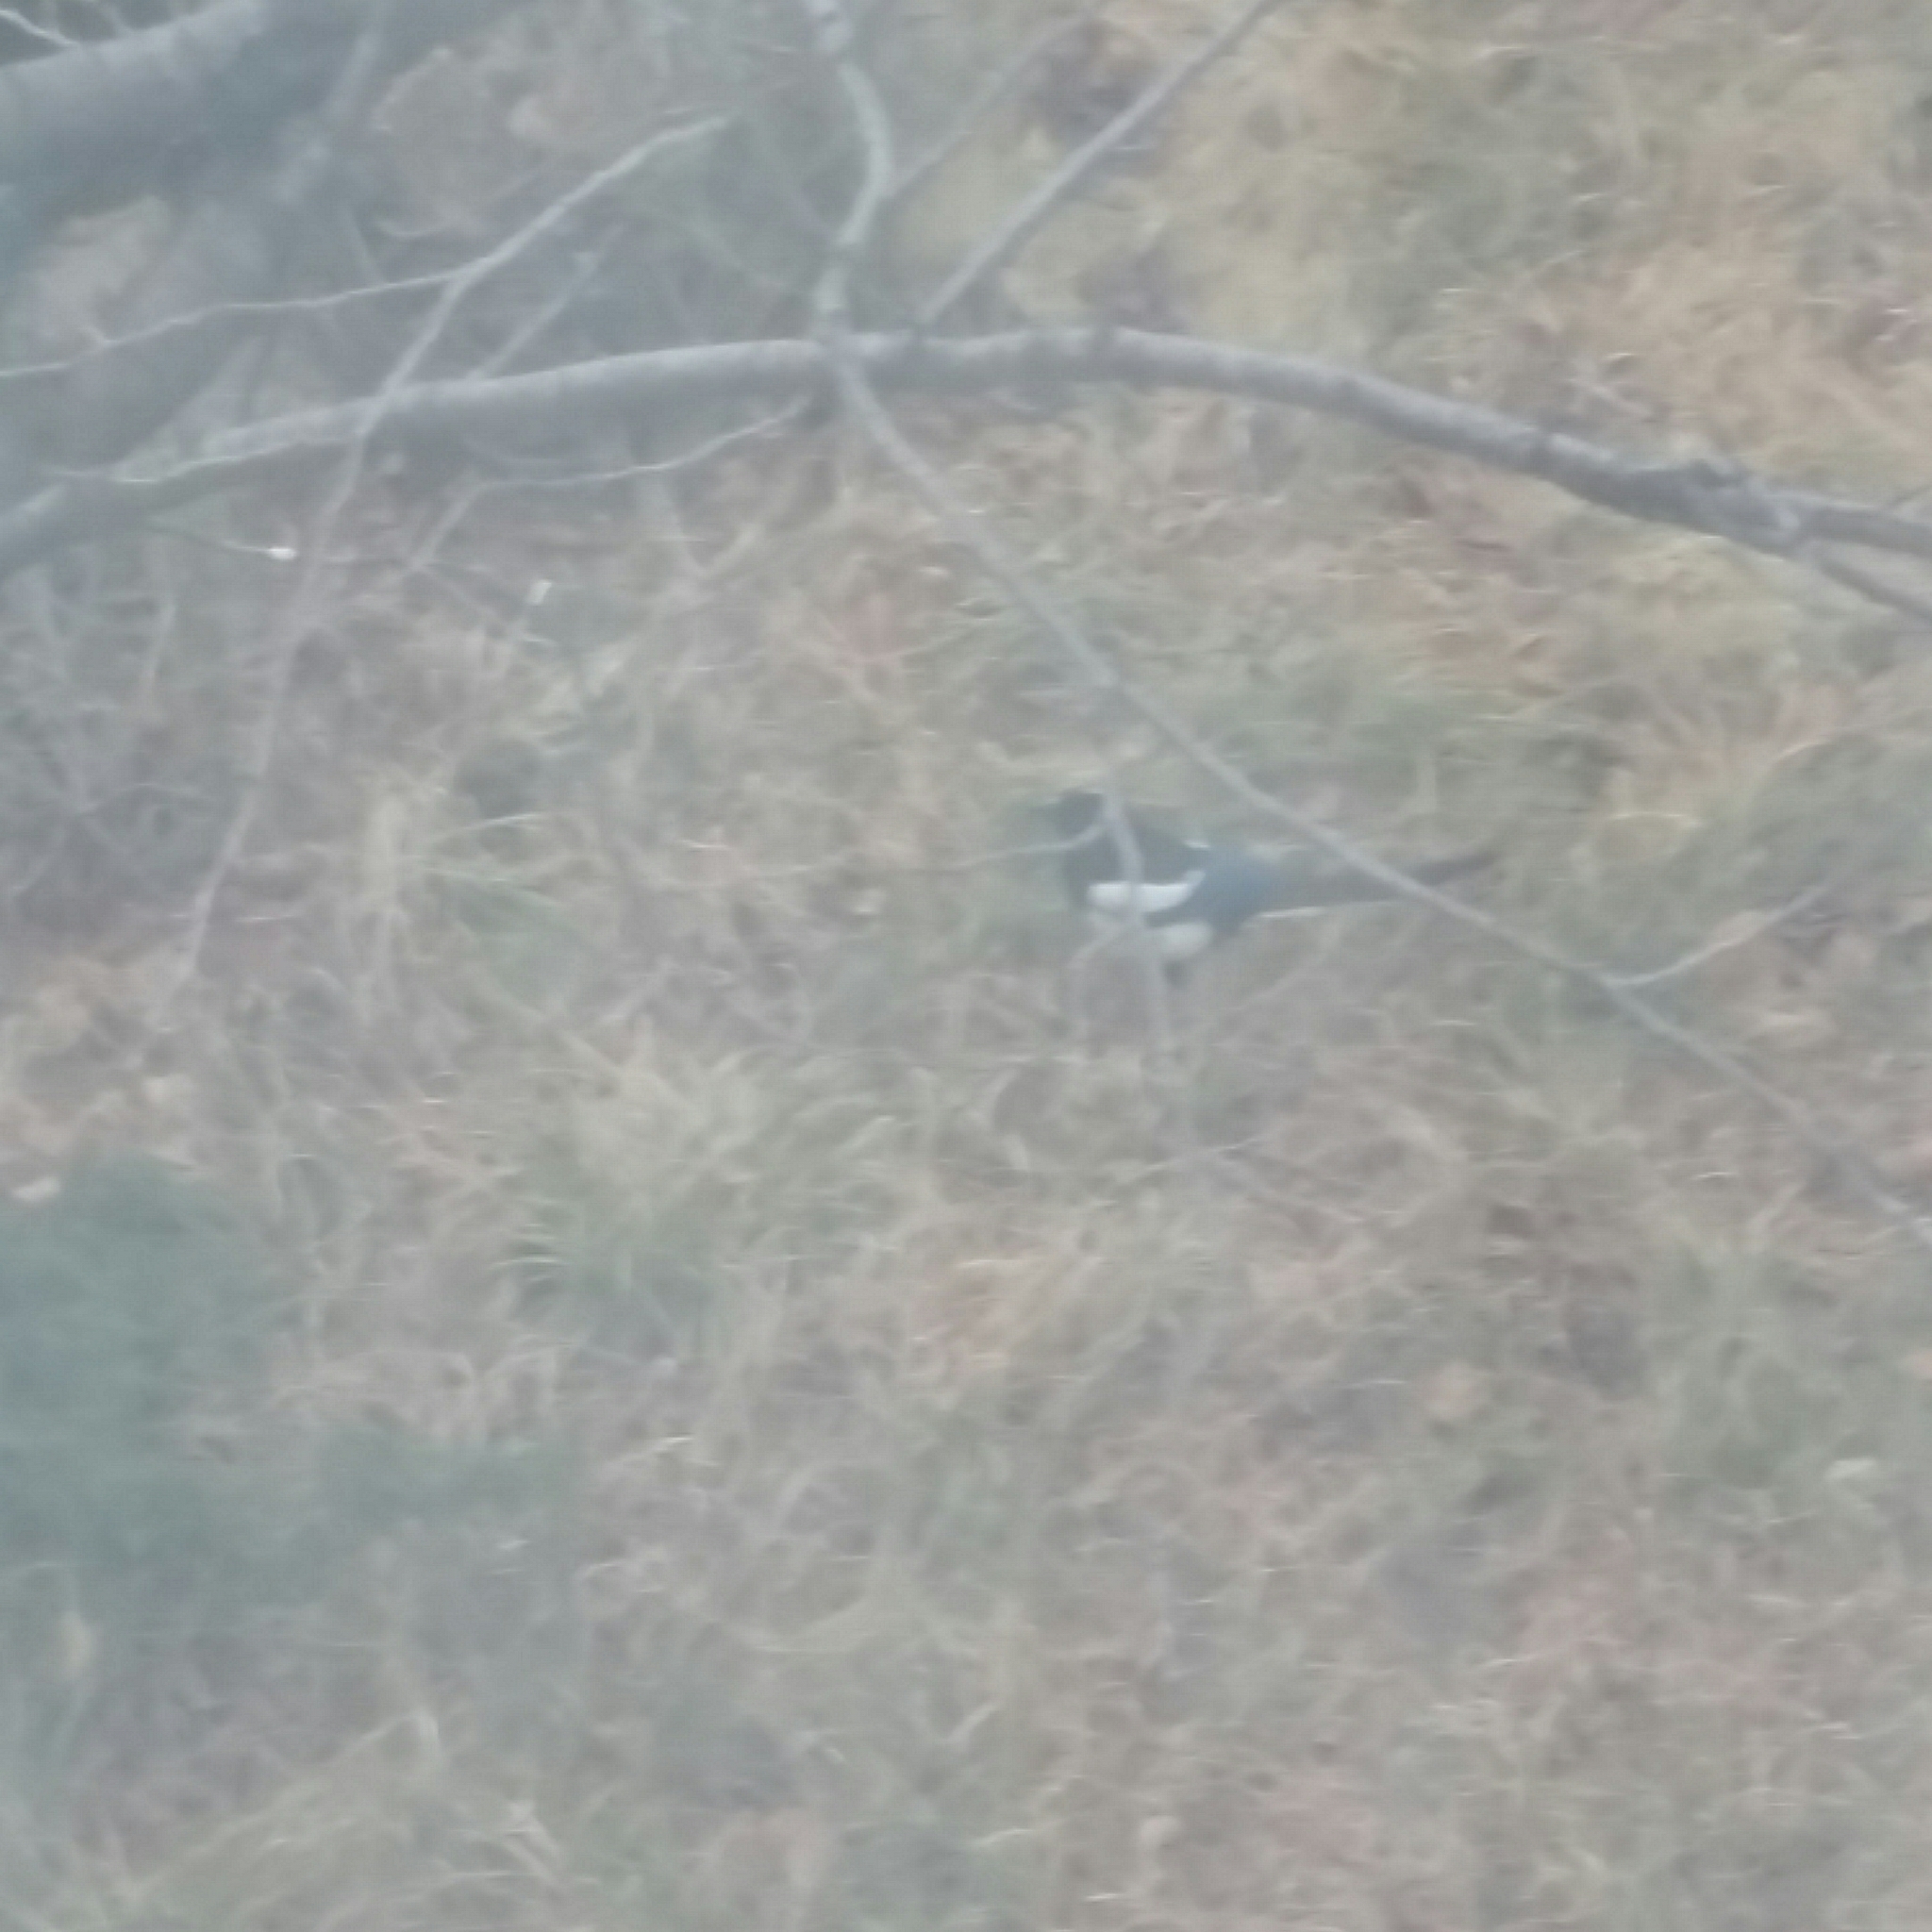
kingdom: Animalia
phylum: Chordata
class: Aves
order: Passeriformes
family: Corvidae
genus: Pica
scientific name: Pica serica
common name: Oriental magpie
